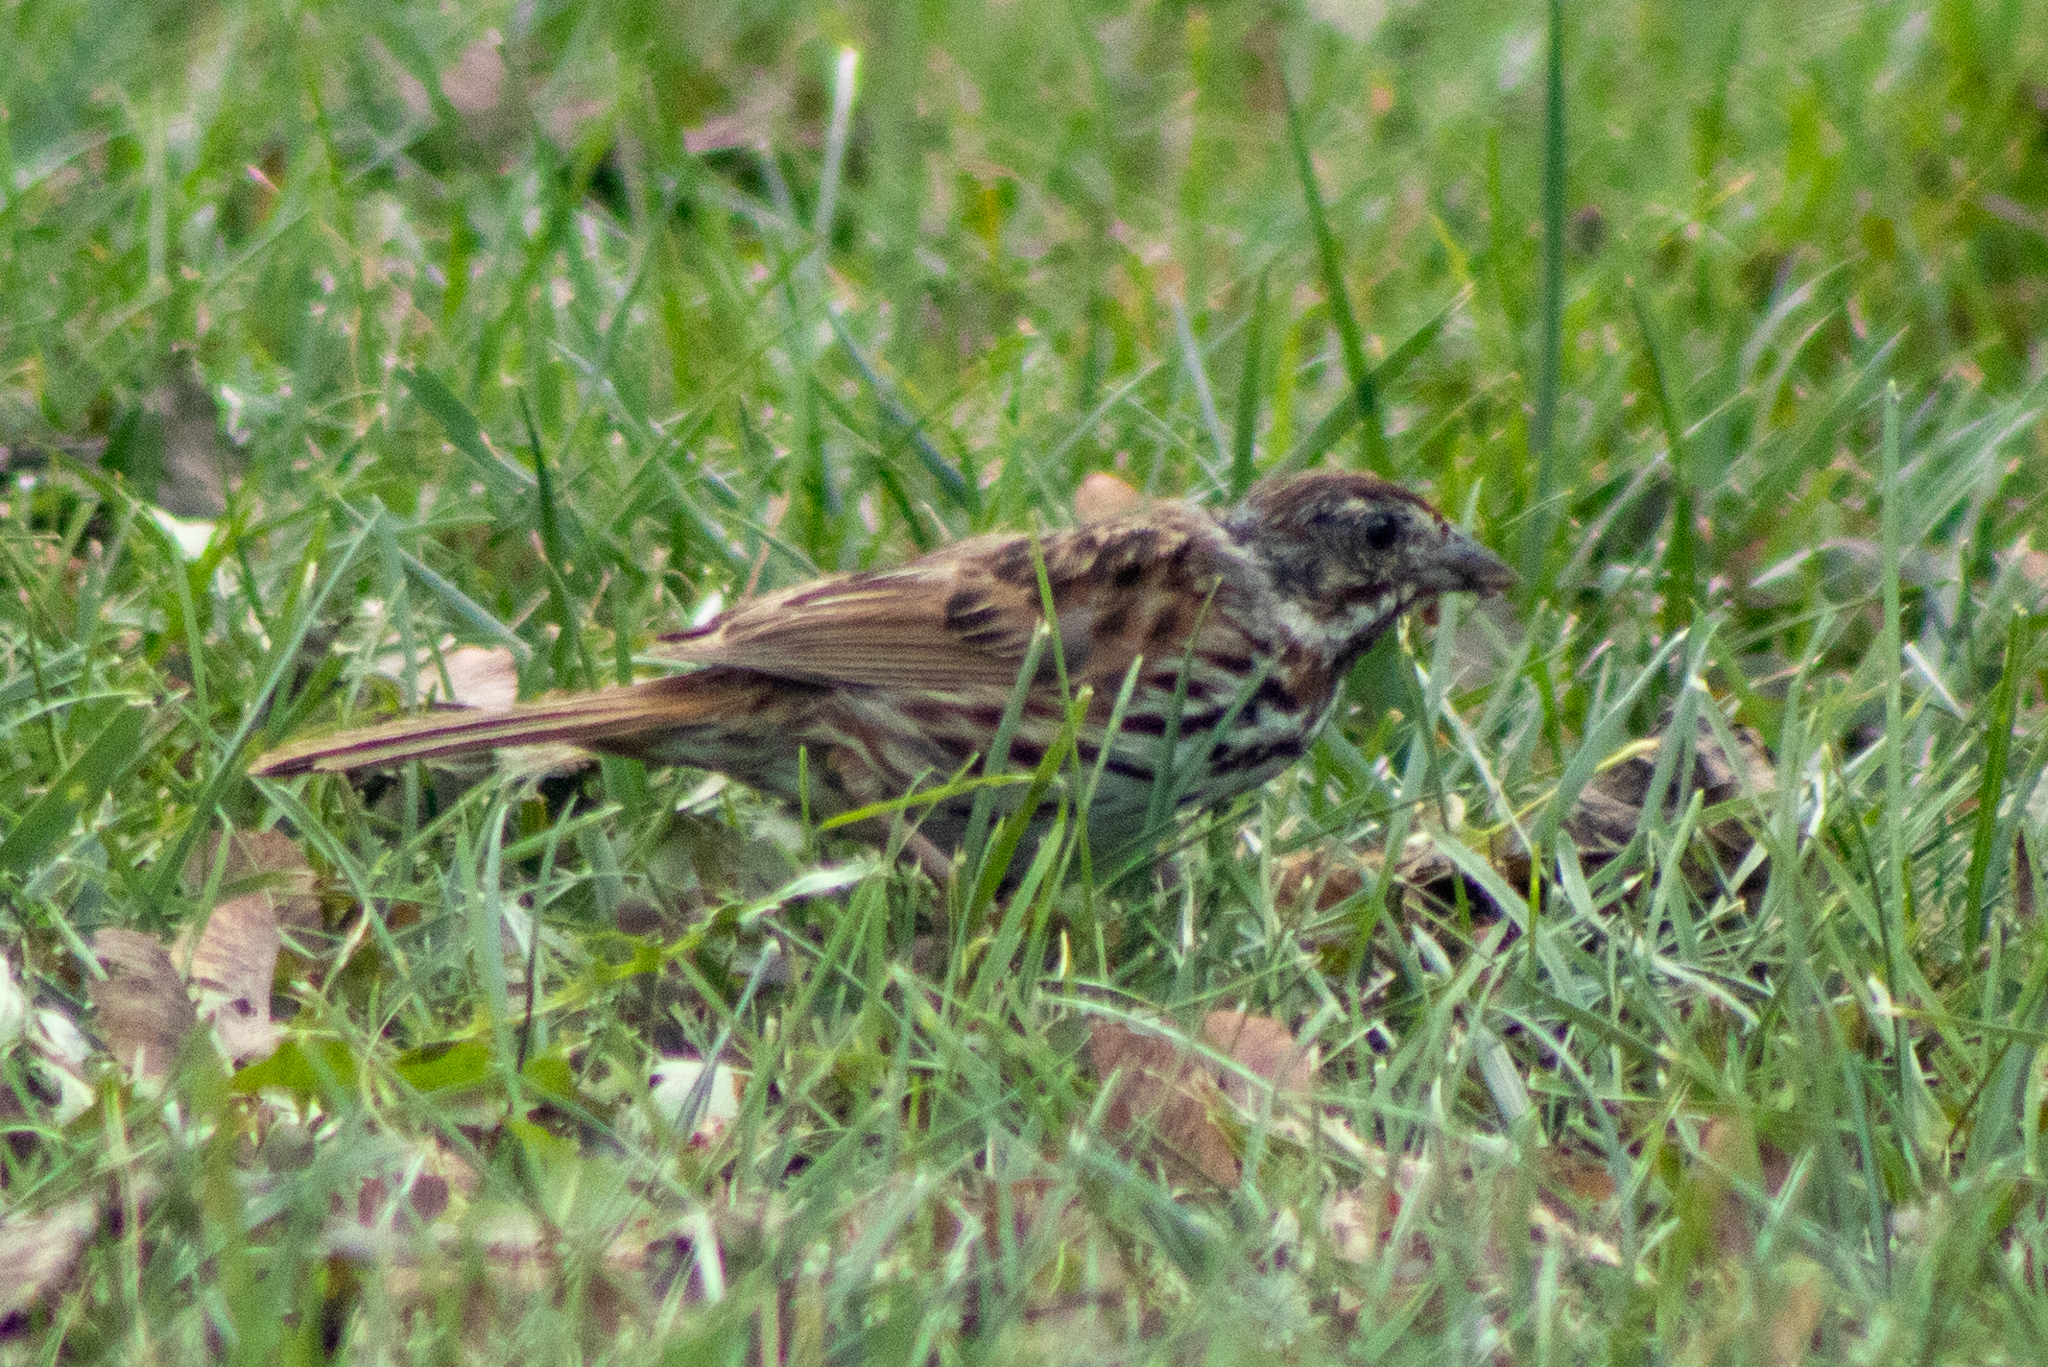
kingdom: Animalia
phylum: Chordata
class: Aves
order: Passeriformes
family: Passerellidae
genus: Melospiza
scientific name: Melospiza melodia
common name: Song sparrow
